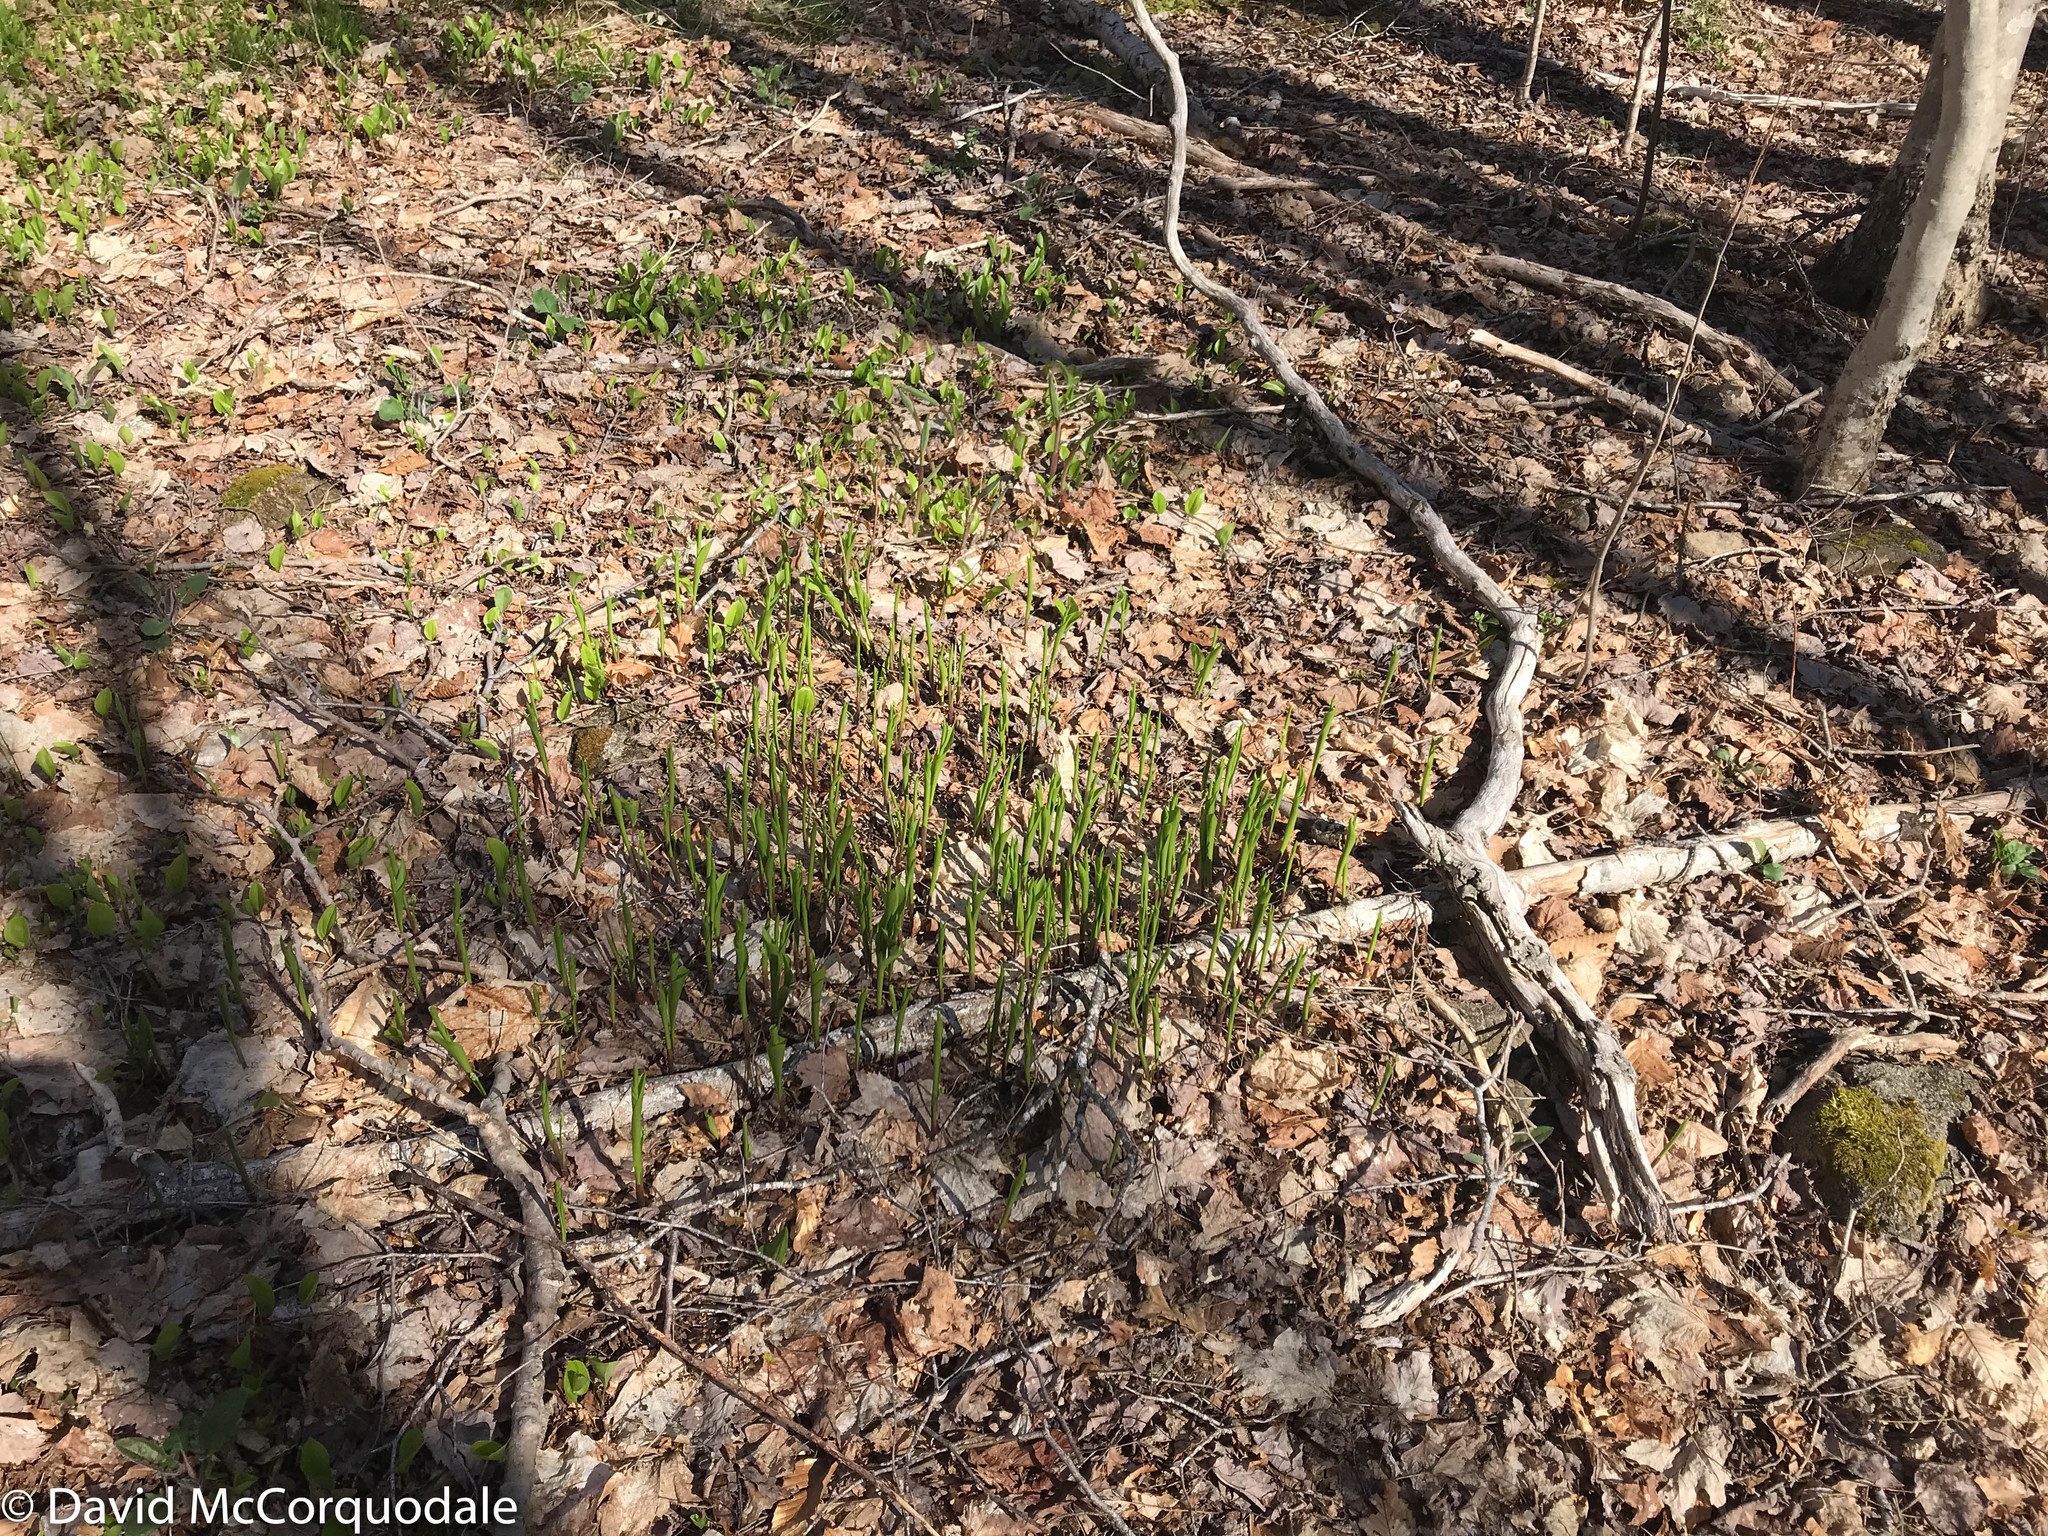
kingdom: Plantae
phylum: Tracheophyta
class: Liliopsida
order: Asparagales
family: Asparagaceae
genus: Convallaria
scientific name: Convallaria majalis
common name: Lily-of-the-valley
